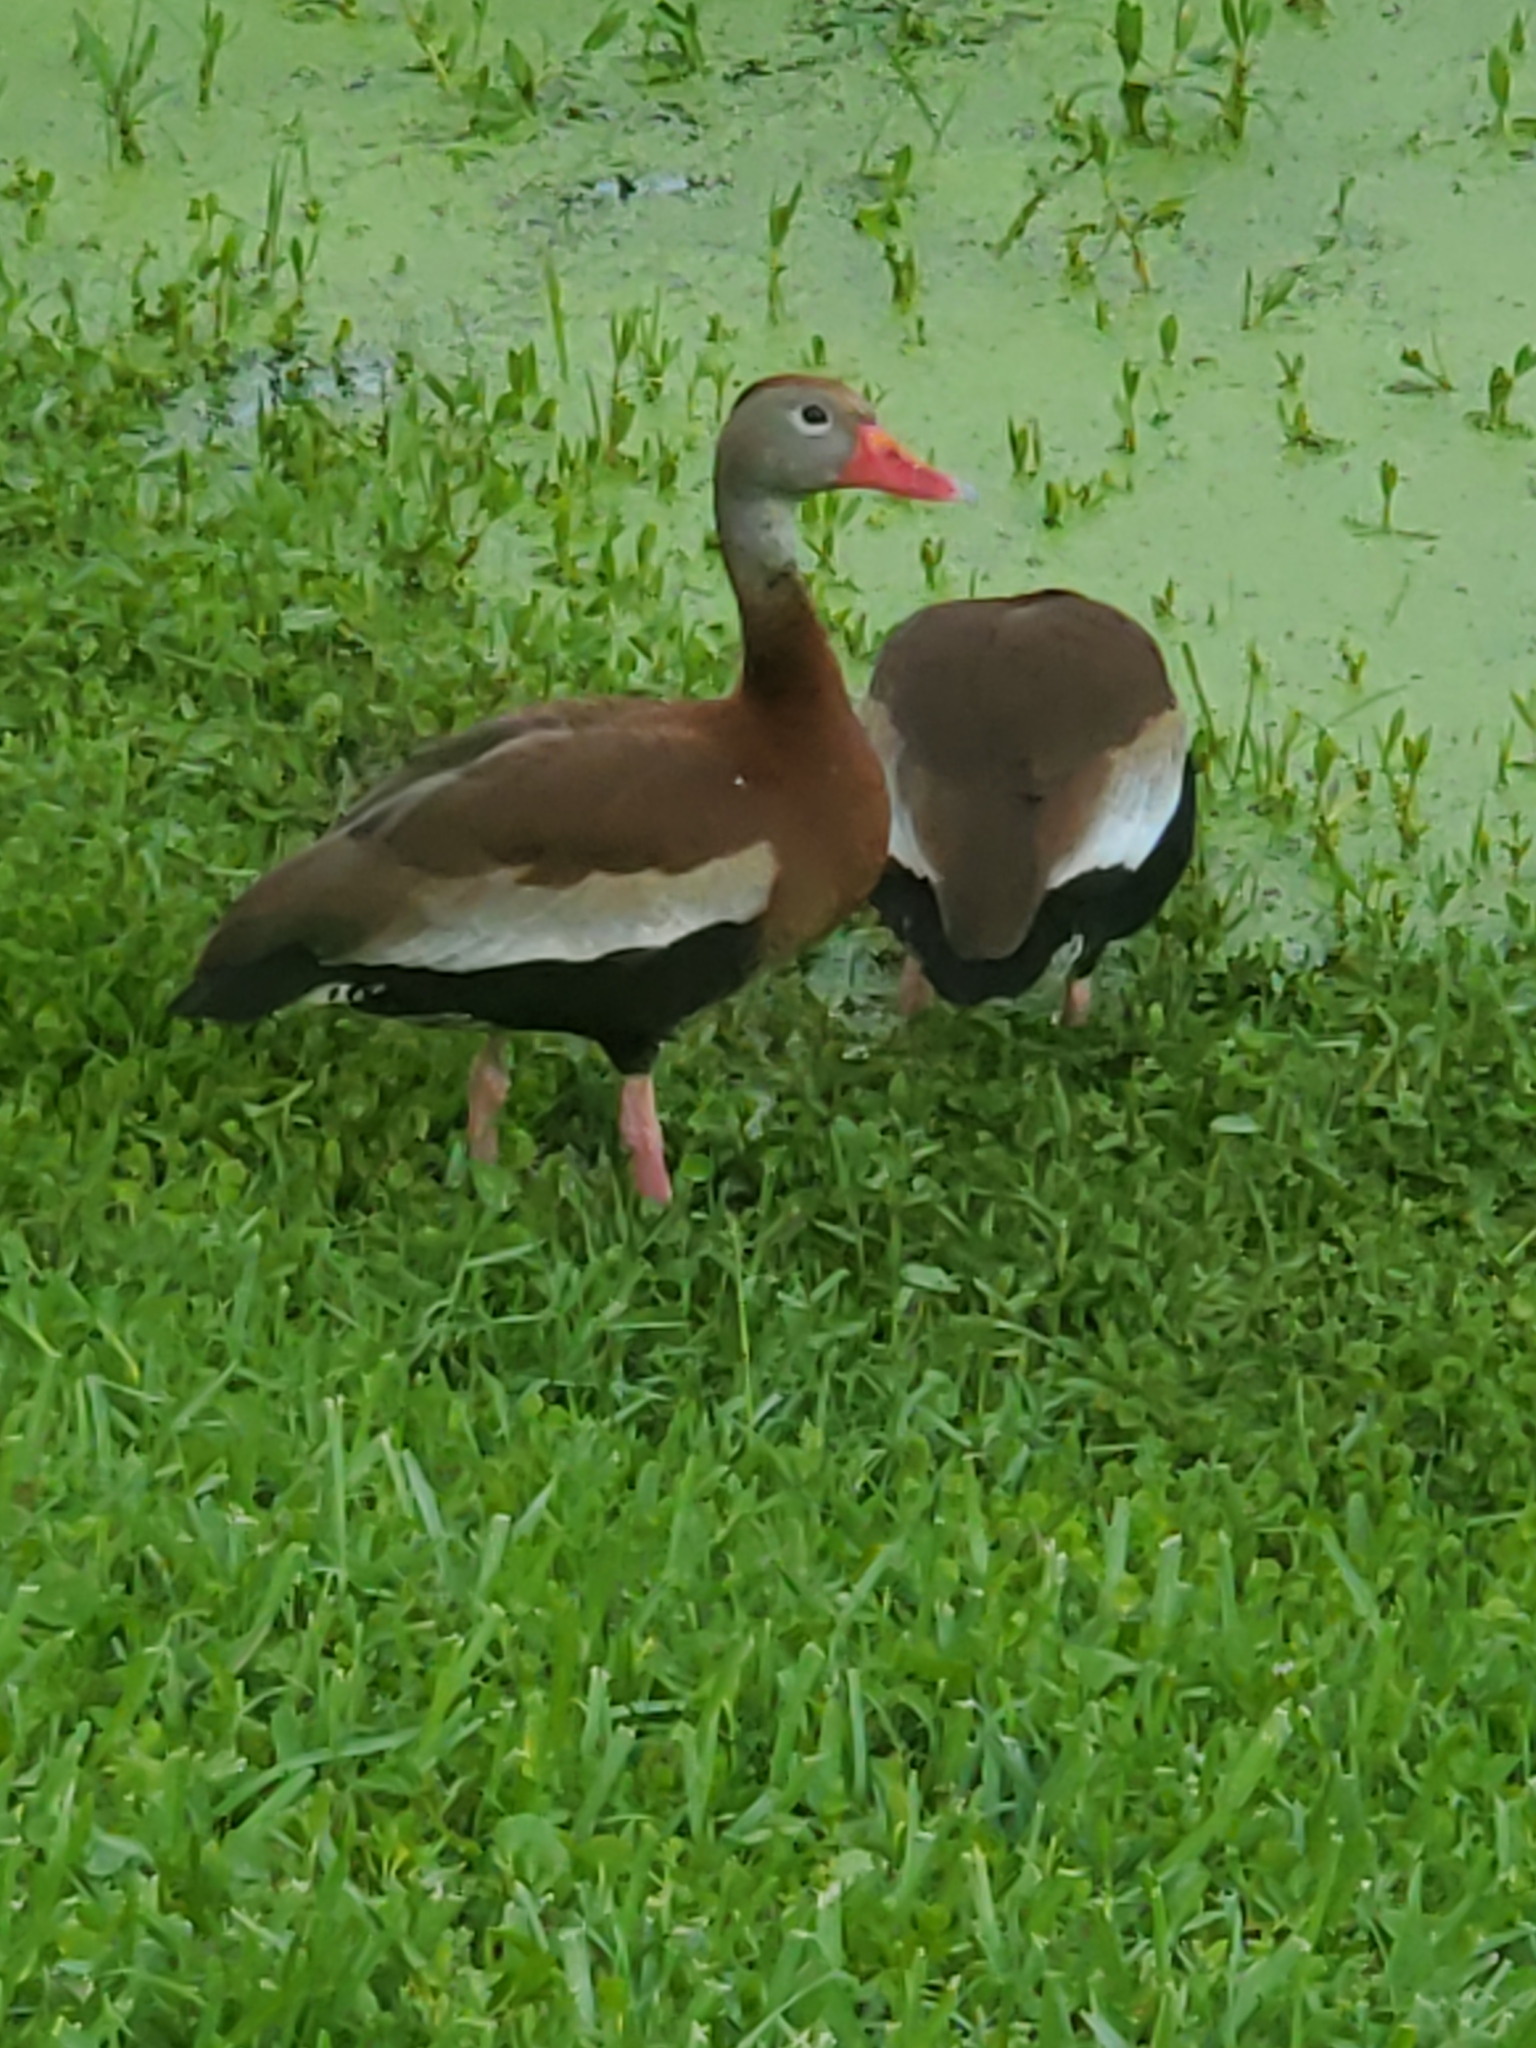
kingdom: Animalia
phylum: Chordata
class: Aves
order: Anseriformes
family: Anatidae
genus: Dendrocygna
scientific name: Dendrocygna autumnalis
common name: Black-bellied whistling duck
